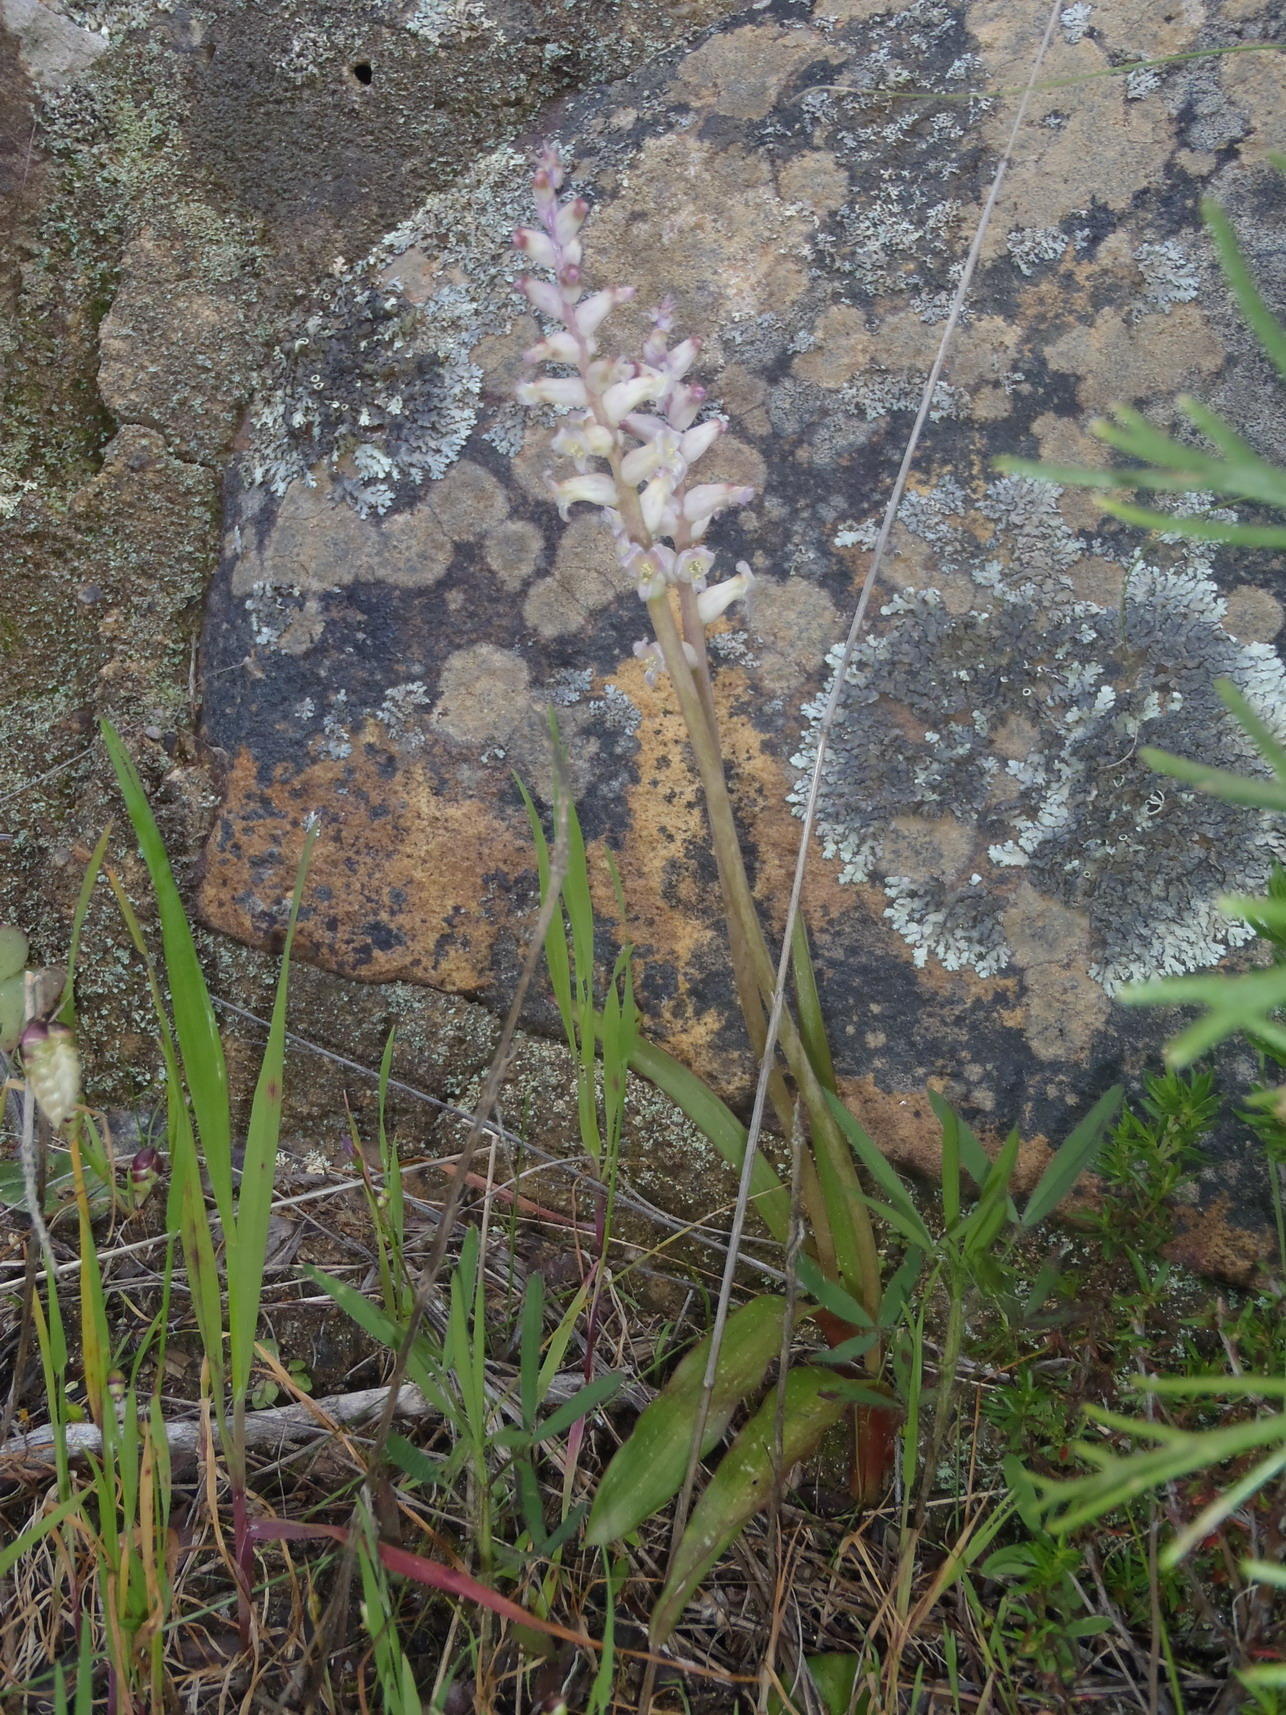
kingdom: Plantae
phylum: Tracheophyta
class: Liliopsida
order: Asparagales
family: Asparagaceae
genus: Lachenalia
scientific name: Lachenalia fistulosa
